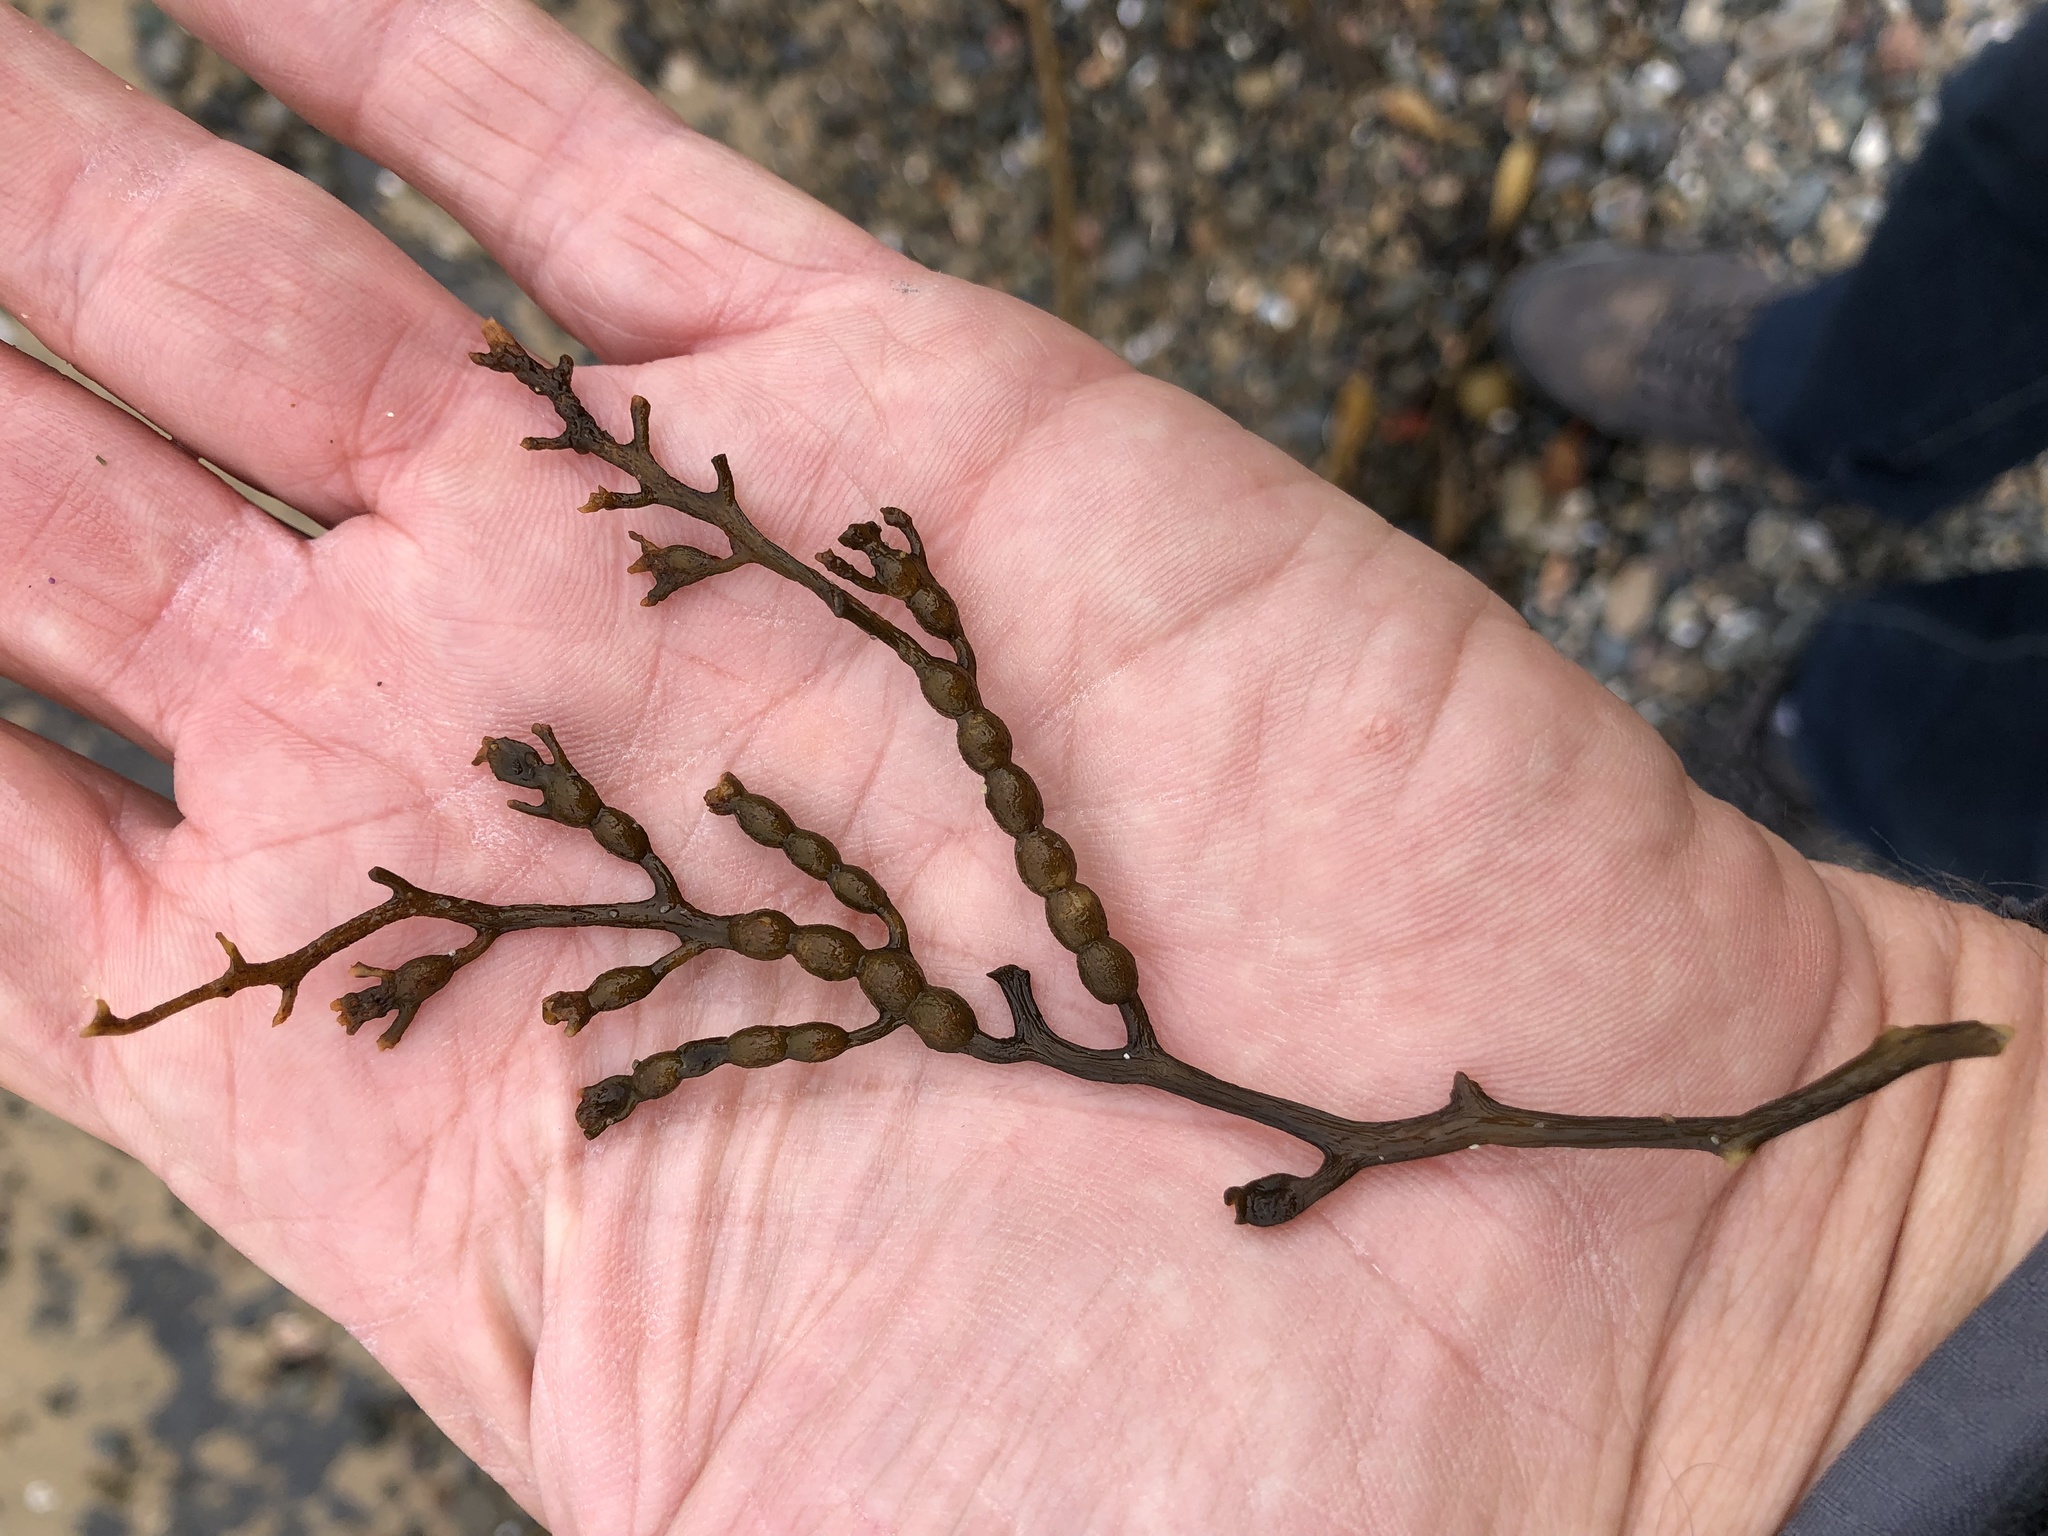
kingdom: Chromista
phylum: Ochrophyta
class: Phaeophyceae
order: Fucales
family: Sargassaceae
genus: Stephanocystis
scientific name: Stephanocystis
